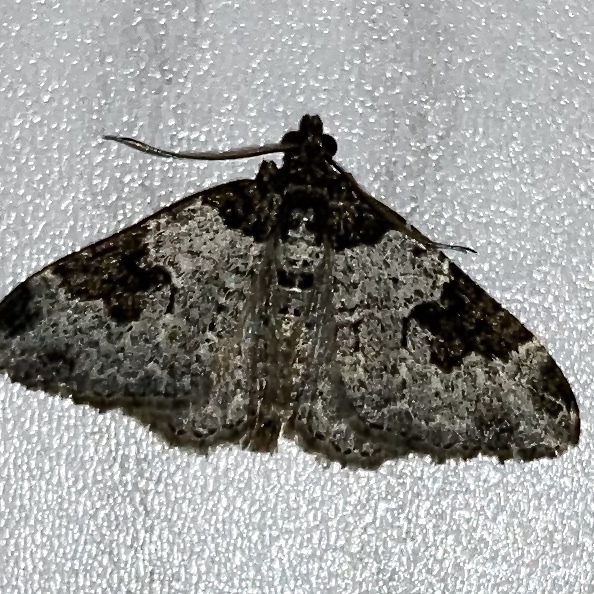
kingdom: Animalia
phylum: Arthropoda
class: Insecta
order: Lepidoptera
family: Geometridae
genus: Xanthorhoe
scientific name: Xanthorhoe fluctuata
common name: Garden carpet
